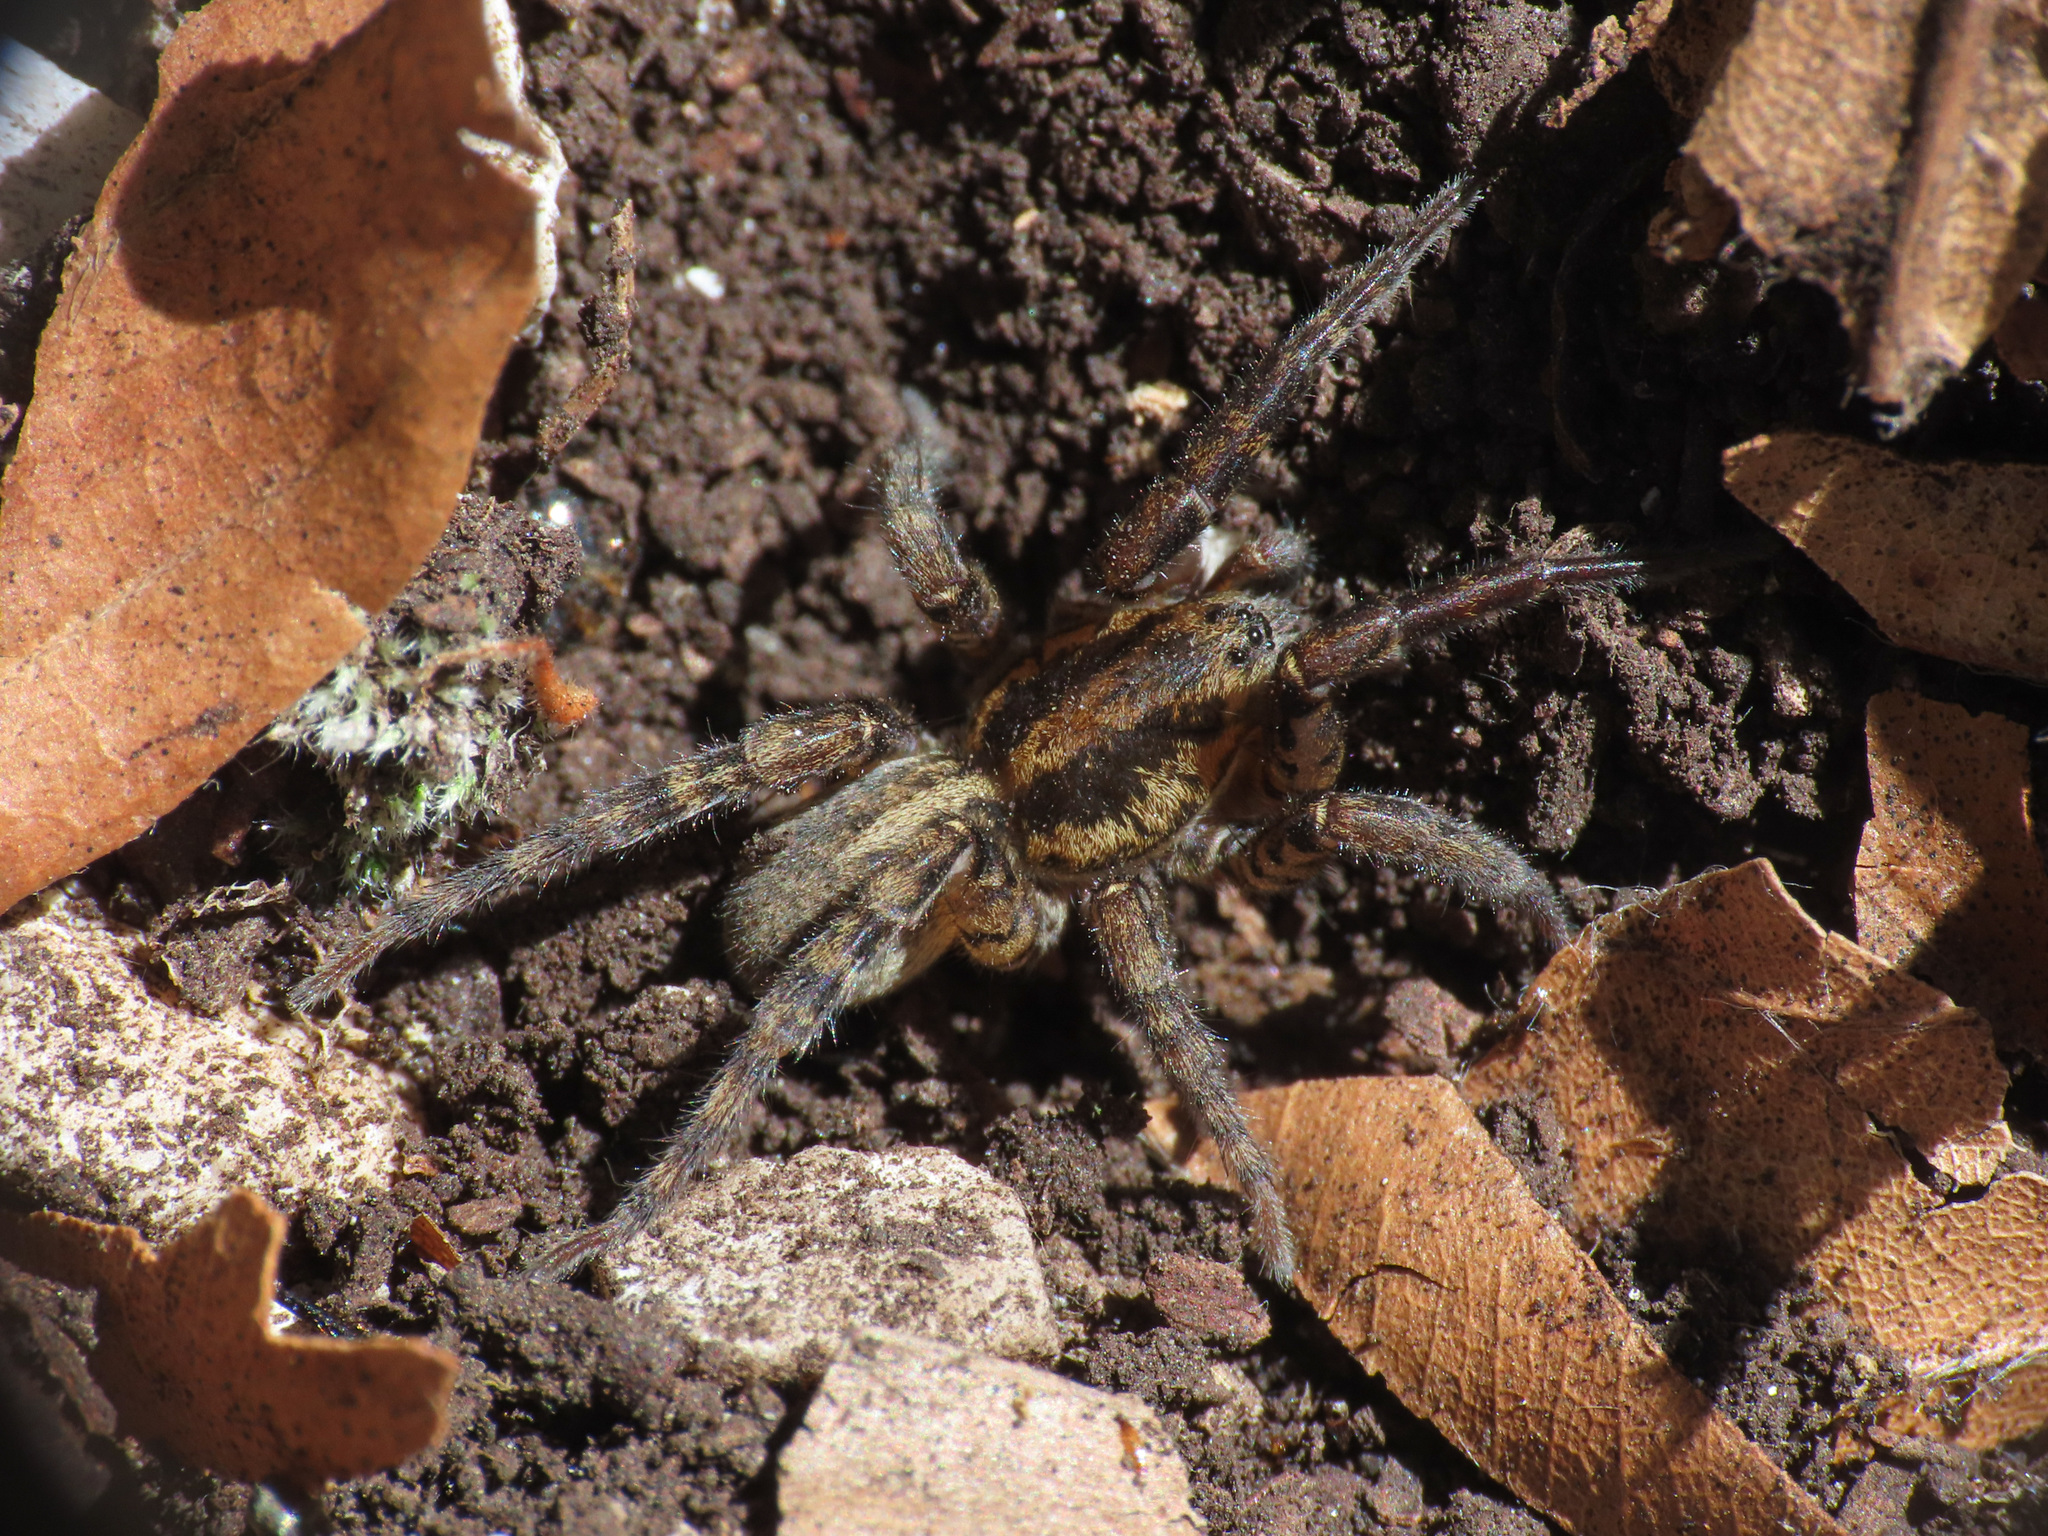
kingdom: Animalia
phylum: Arthropoda
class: Arachnida
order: Araneae
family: Lycosidae
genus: Arctosa
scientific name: Arctosa personata
